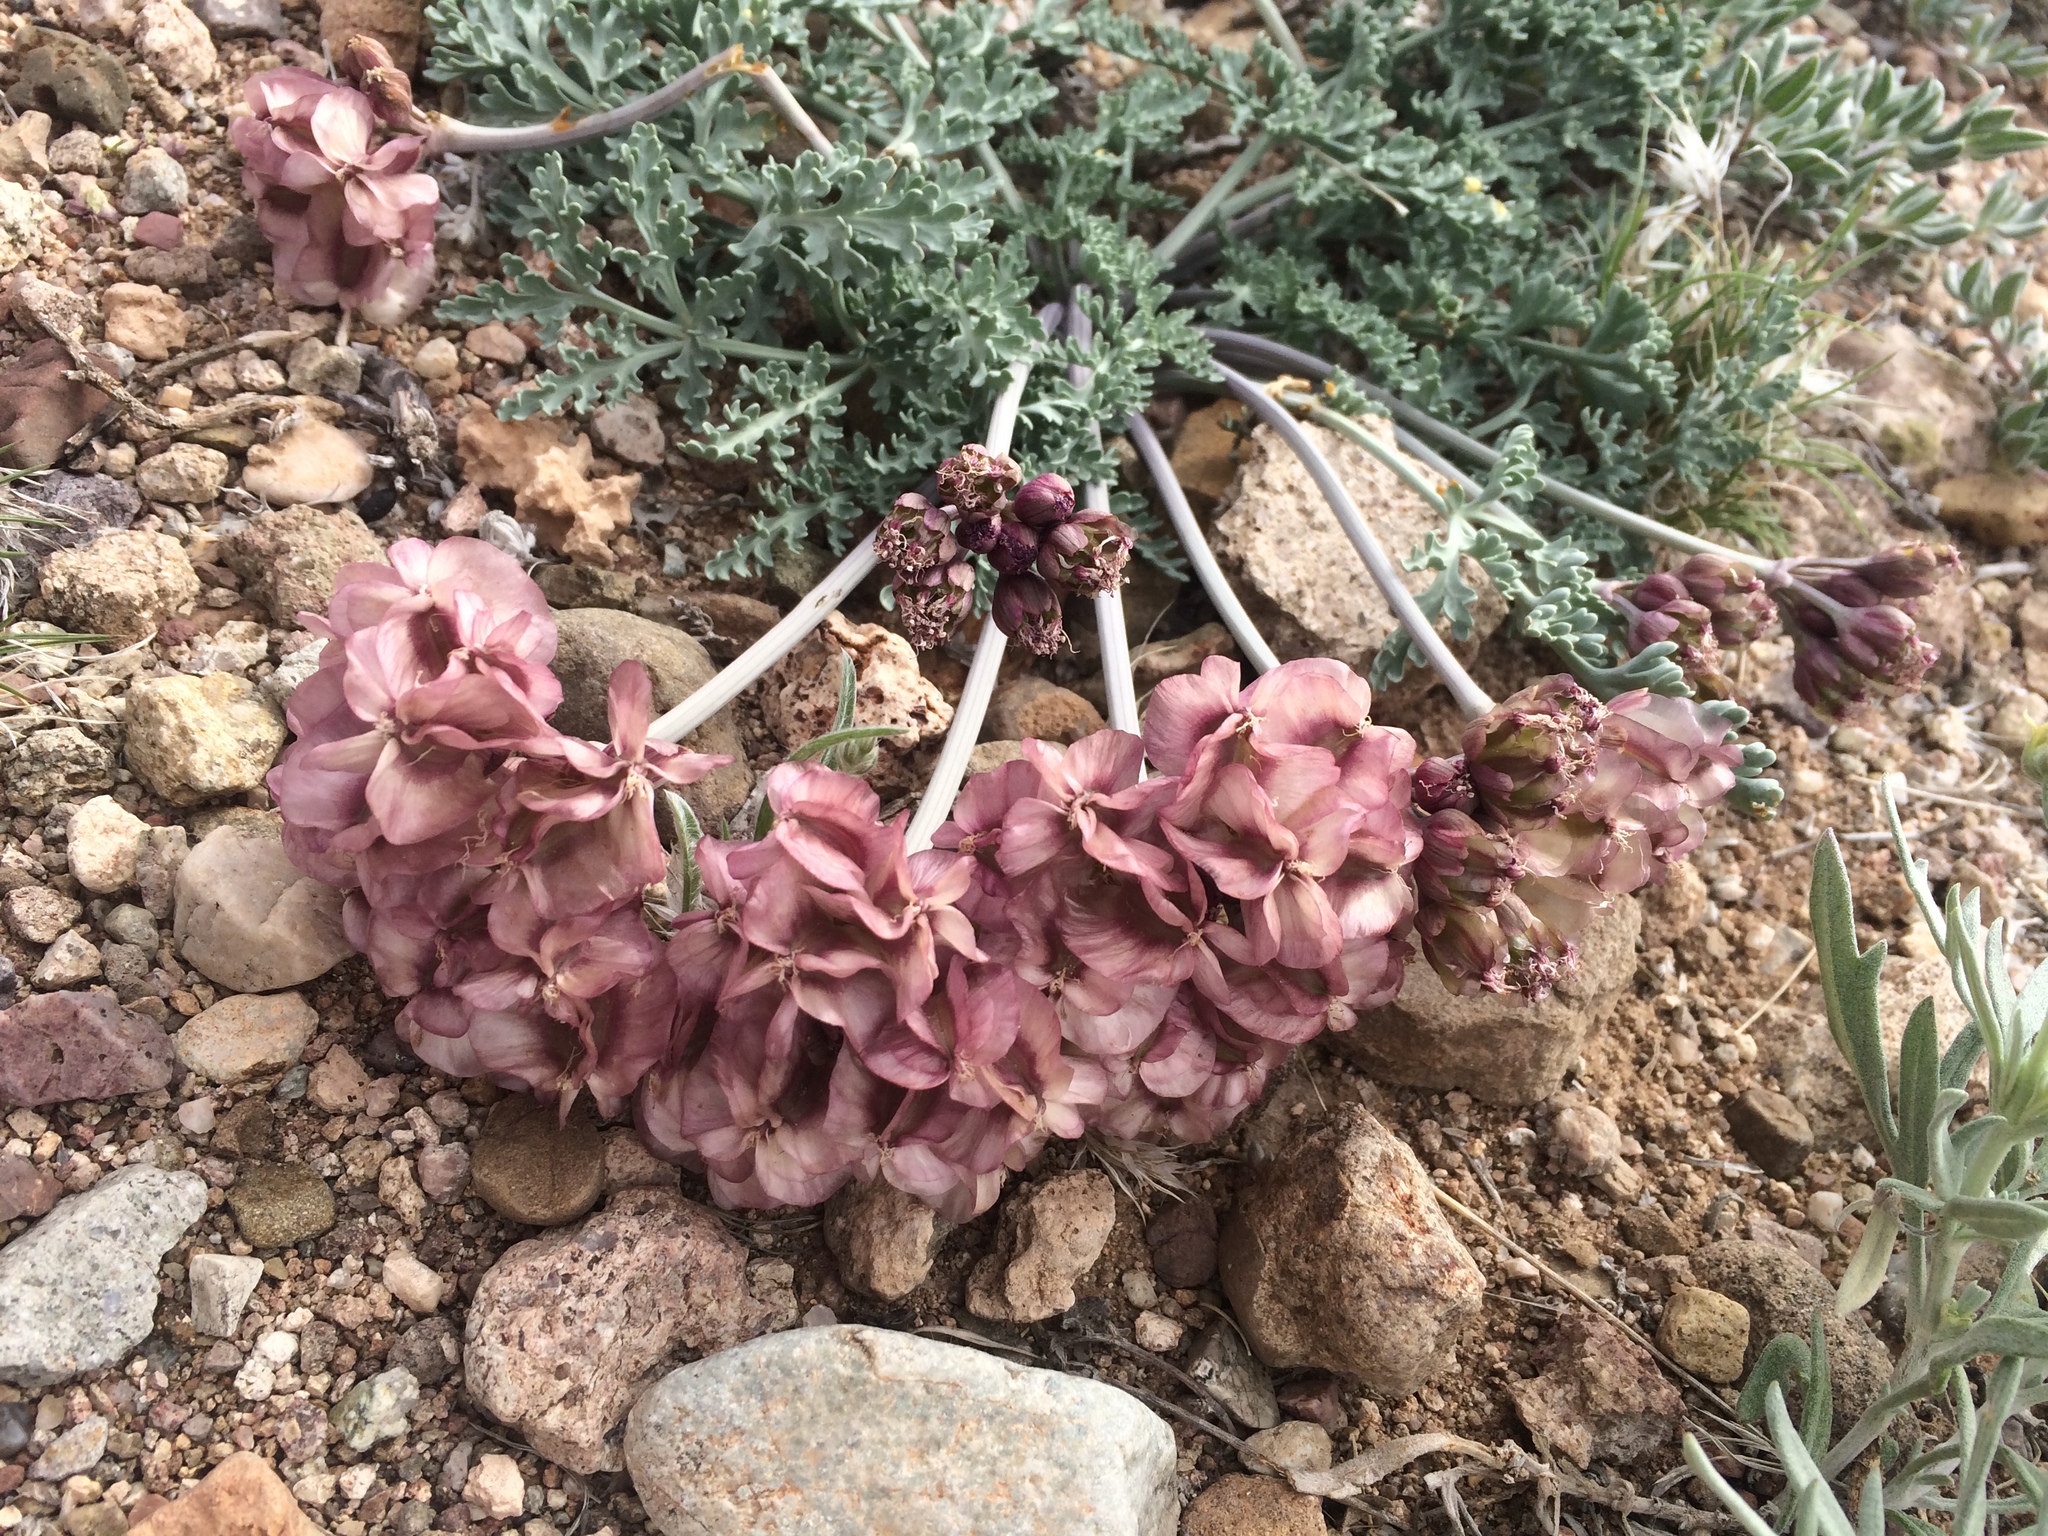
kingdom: Plantae
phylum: Tracheophyta
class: Magnoliopsida
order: Apiales
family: Apiaceae
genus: Vesper
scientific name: Vesper multinervatus
